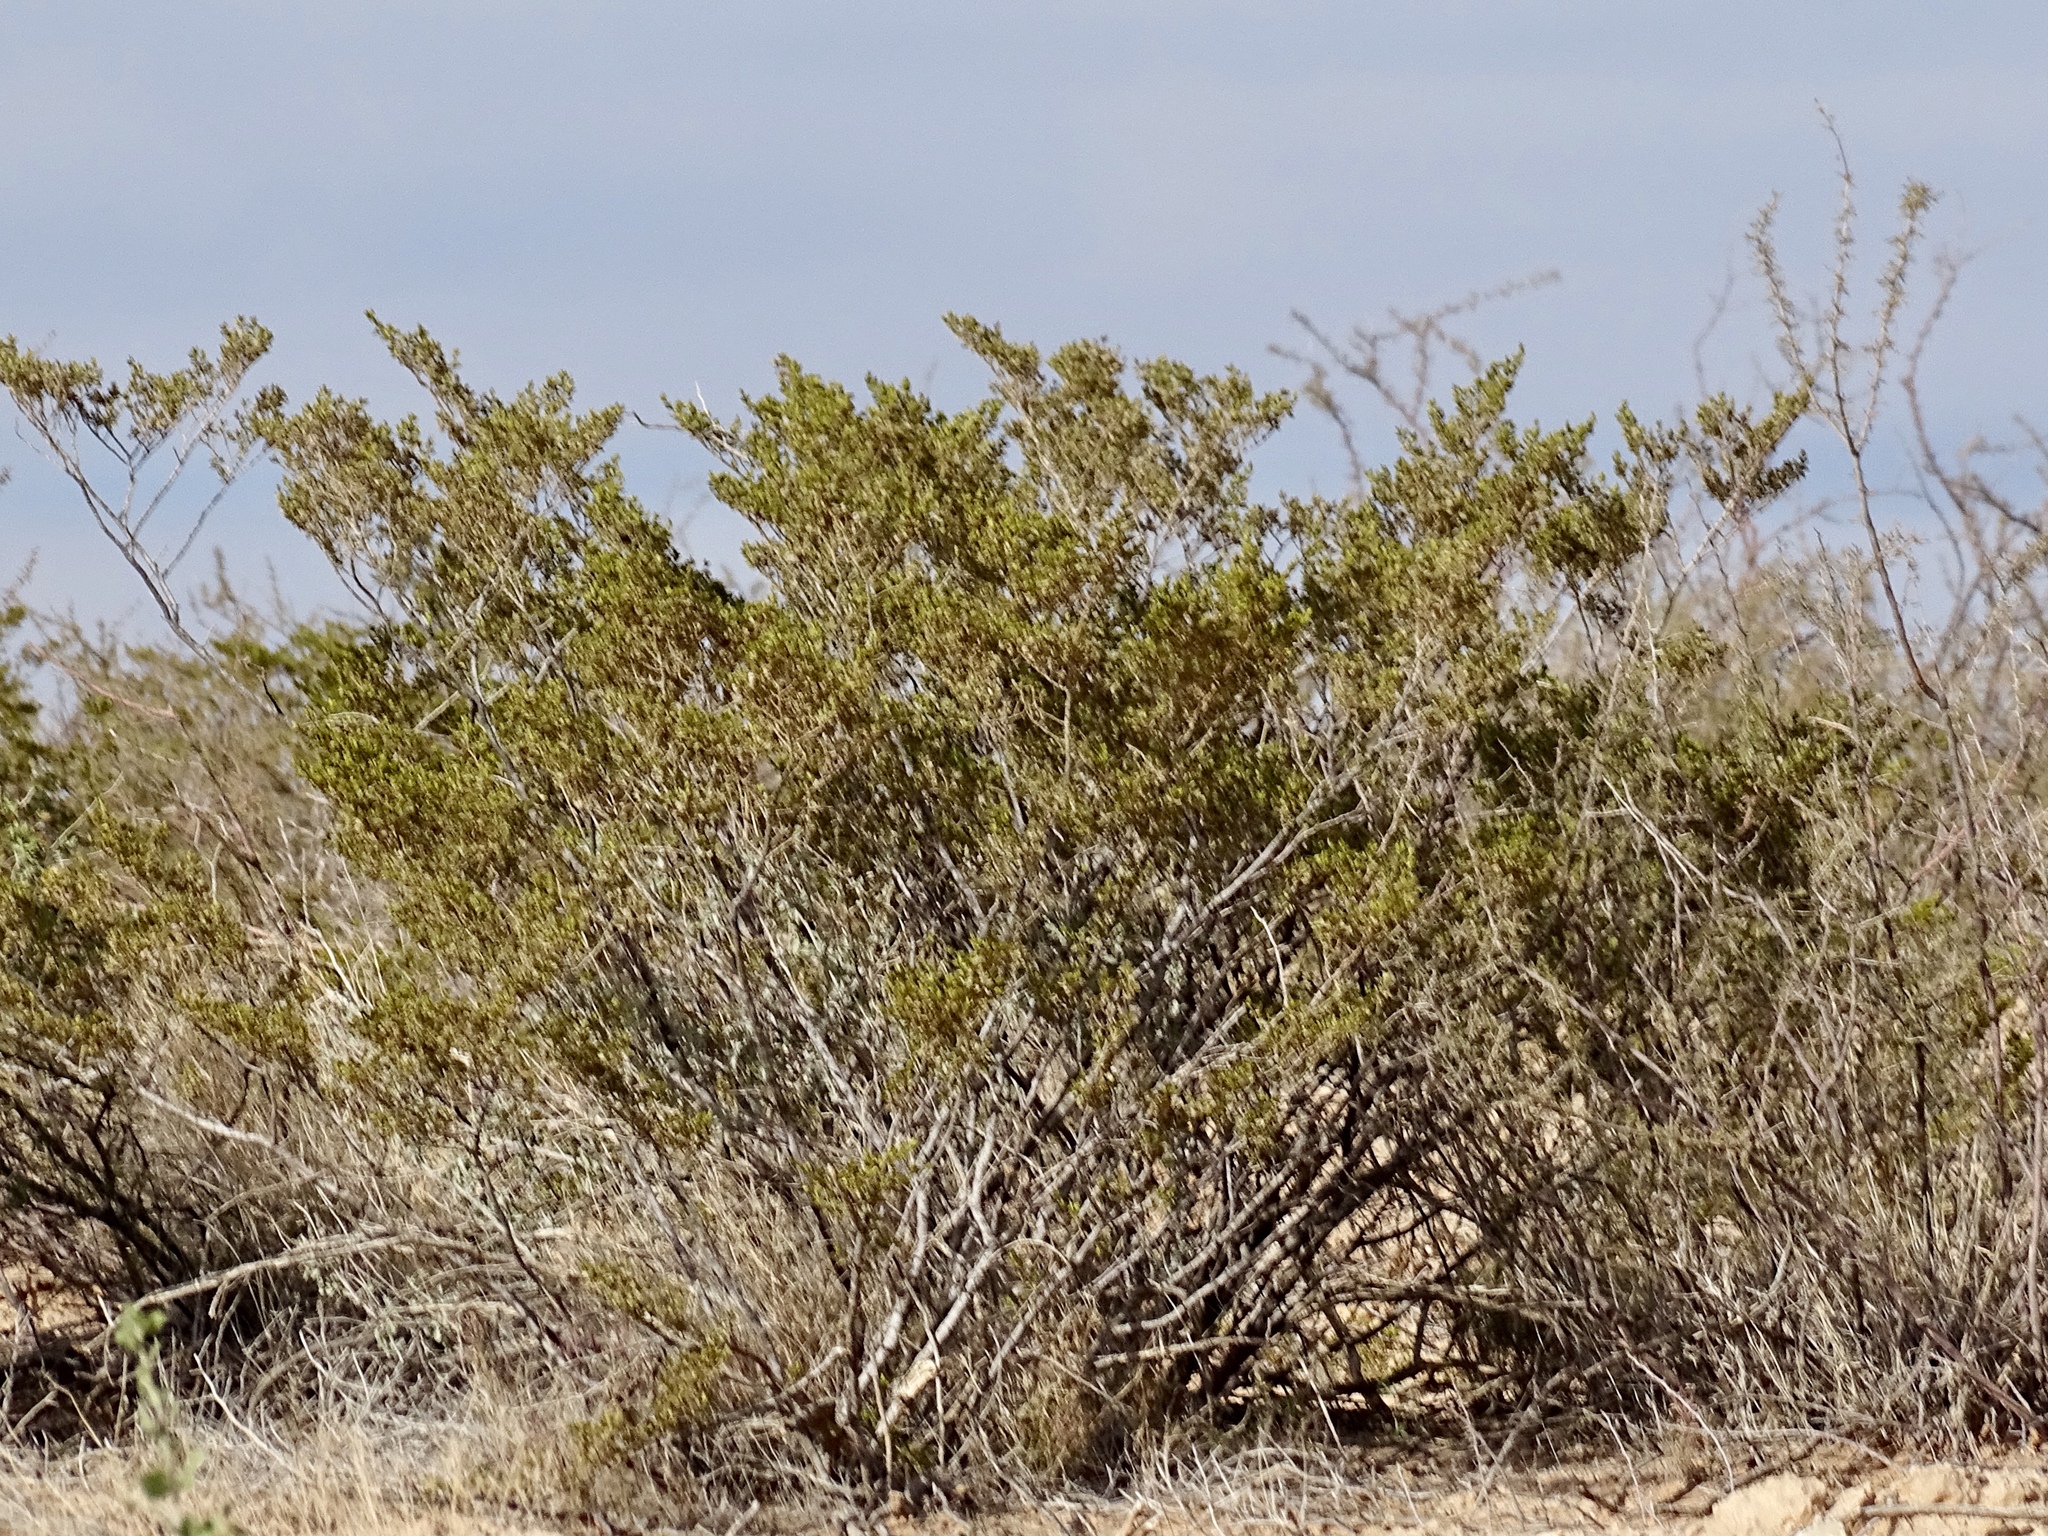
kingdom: Plantae
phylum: Tracheophyta
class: Magnoliopsida
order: Zygophyllales
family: Zygophyllaceae
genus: Larrea
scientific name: Larrea tridentata
